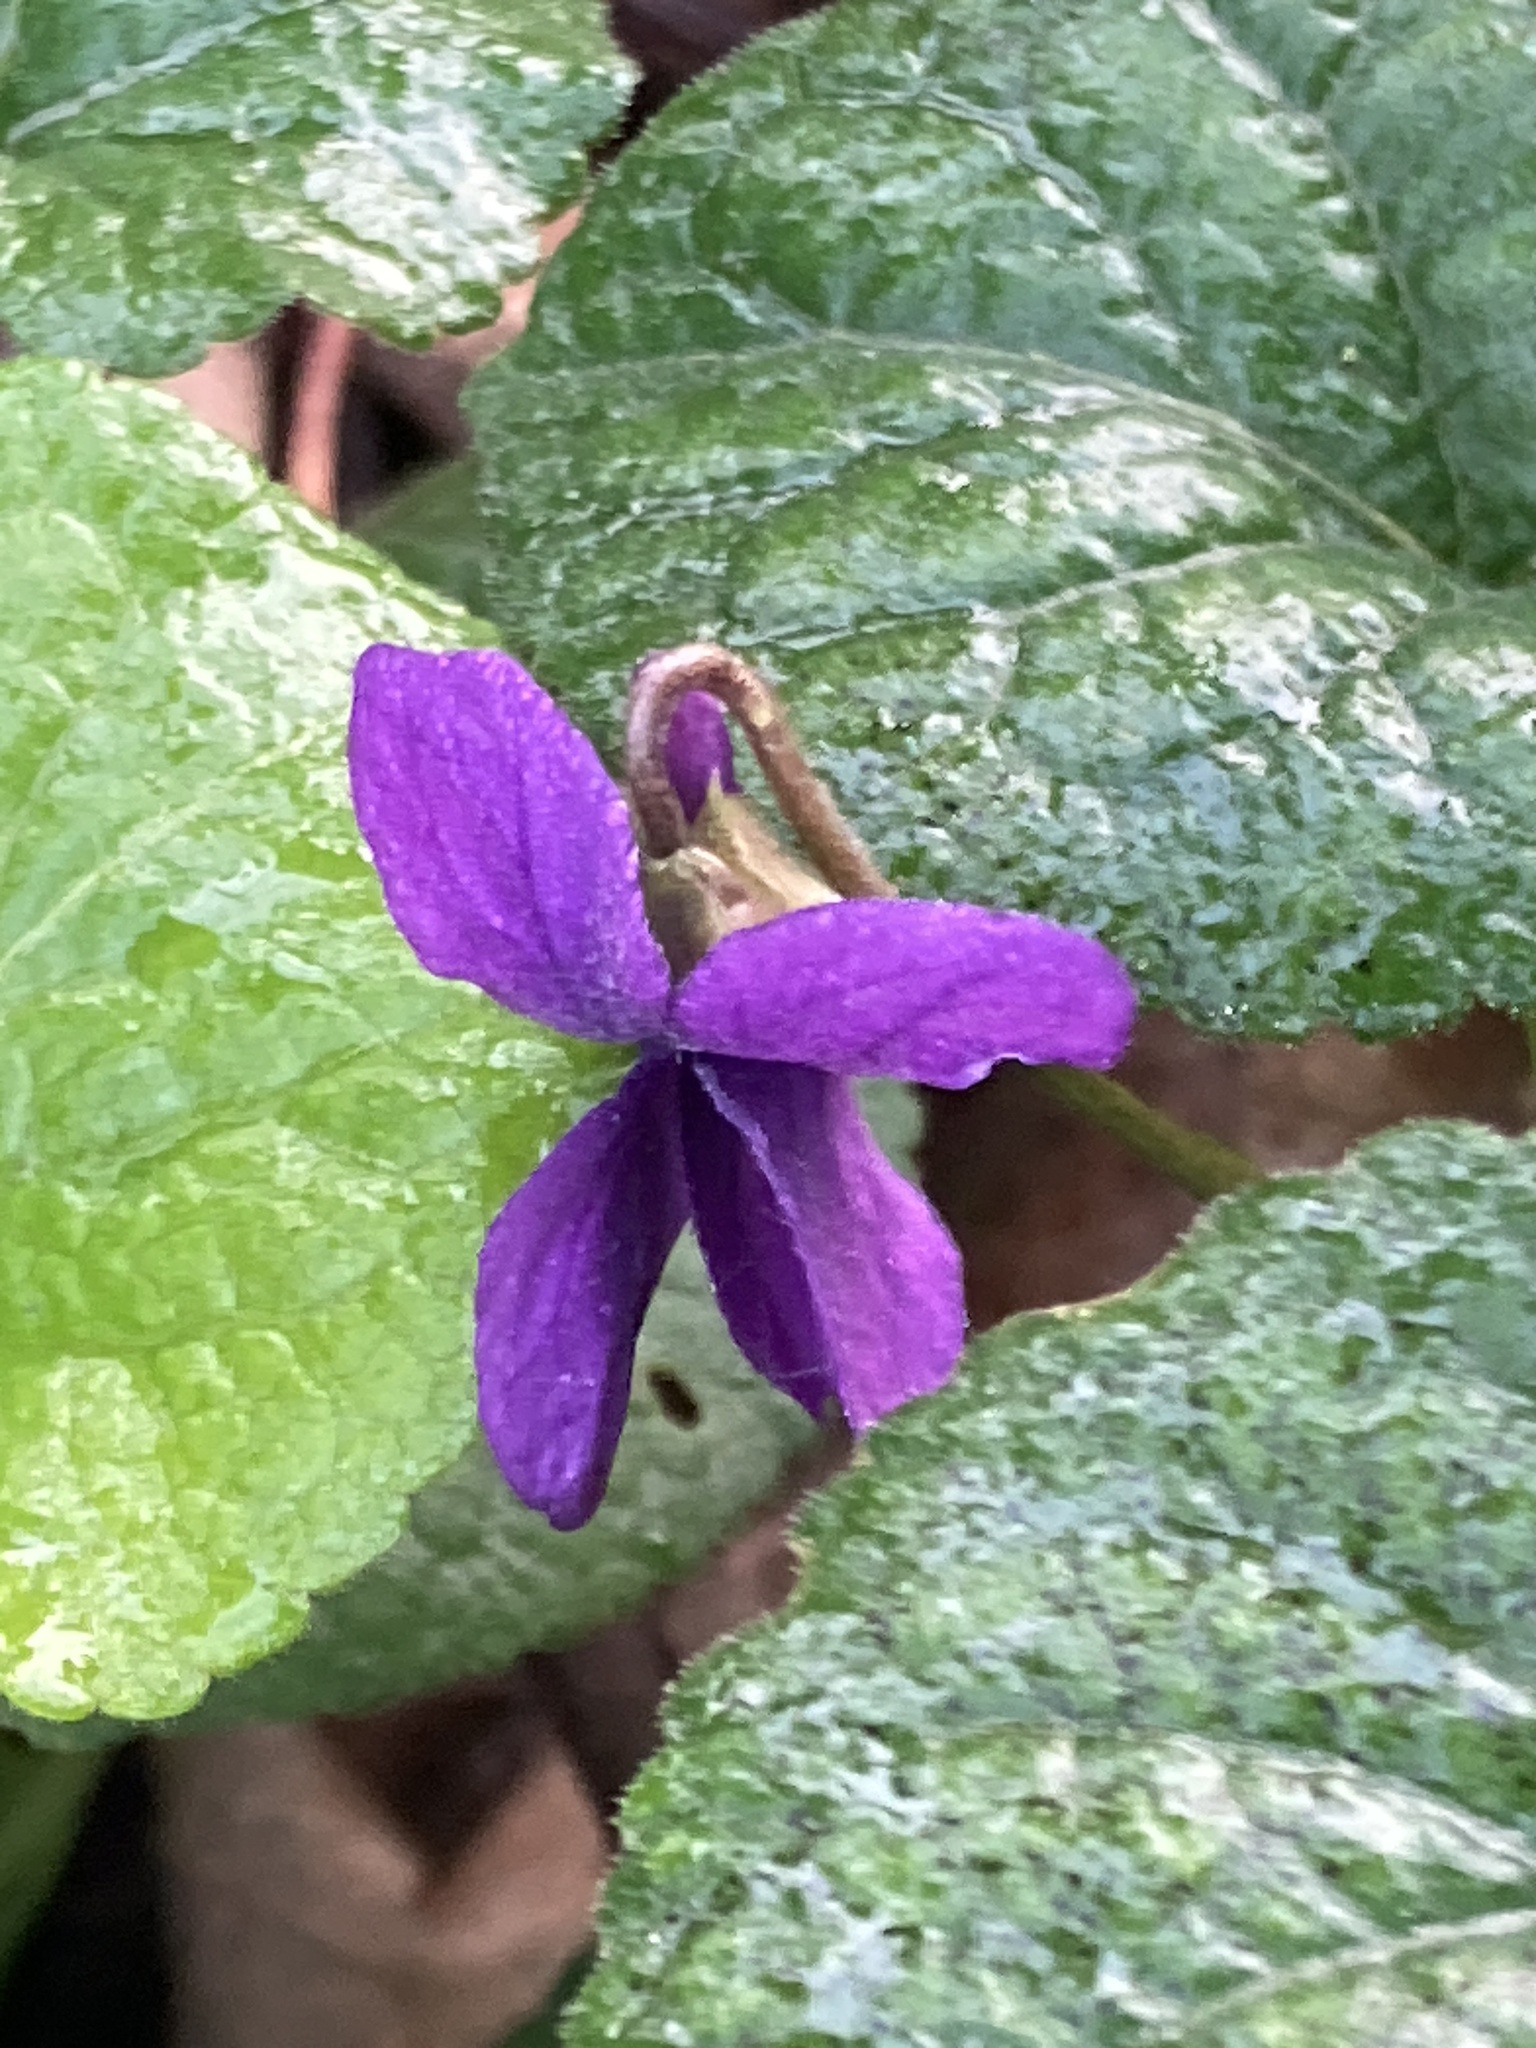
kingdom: Plantae
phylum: Tracheophyta
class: Magnoliopsida
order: Malpighiales
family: Violaceae
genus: Viola
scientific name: Viola odorata
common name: Sweet violet
